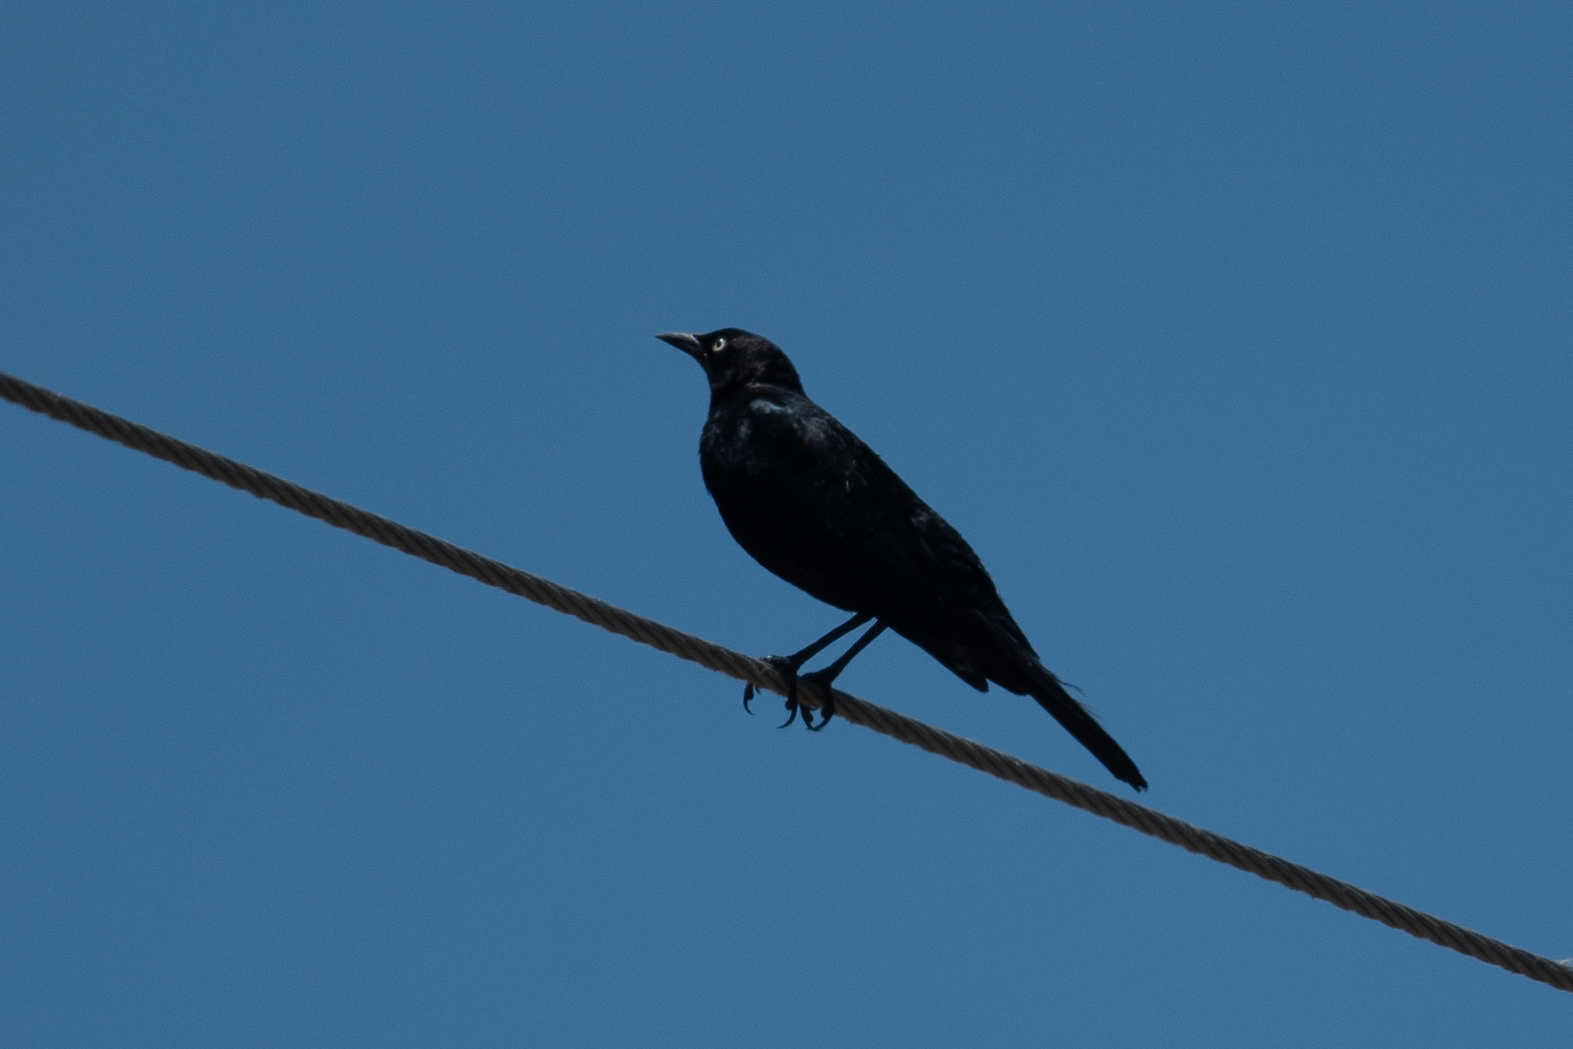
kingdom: Animalia
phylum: Chordata
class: Aves
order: Passeriformes
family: Icteridae
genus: Euphagus
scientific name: Euphagus cyanocephalus
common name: Brewer's blackbird
